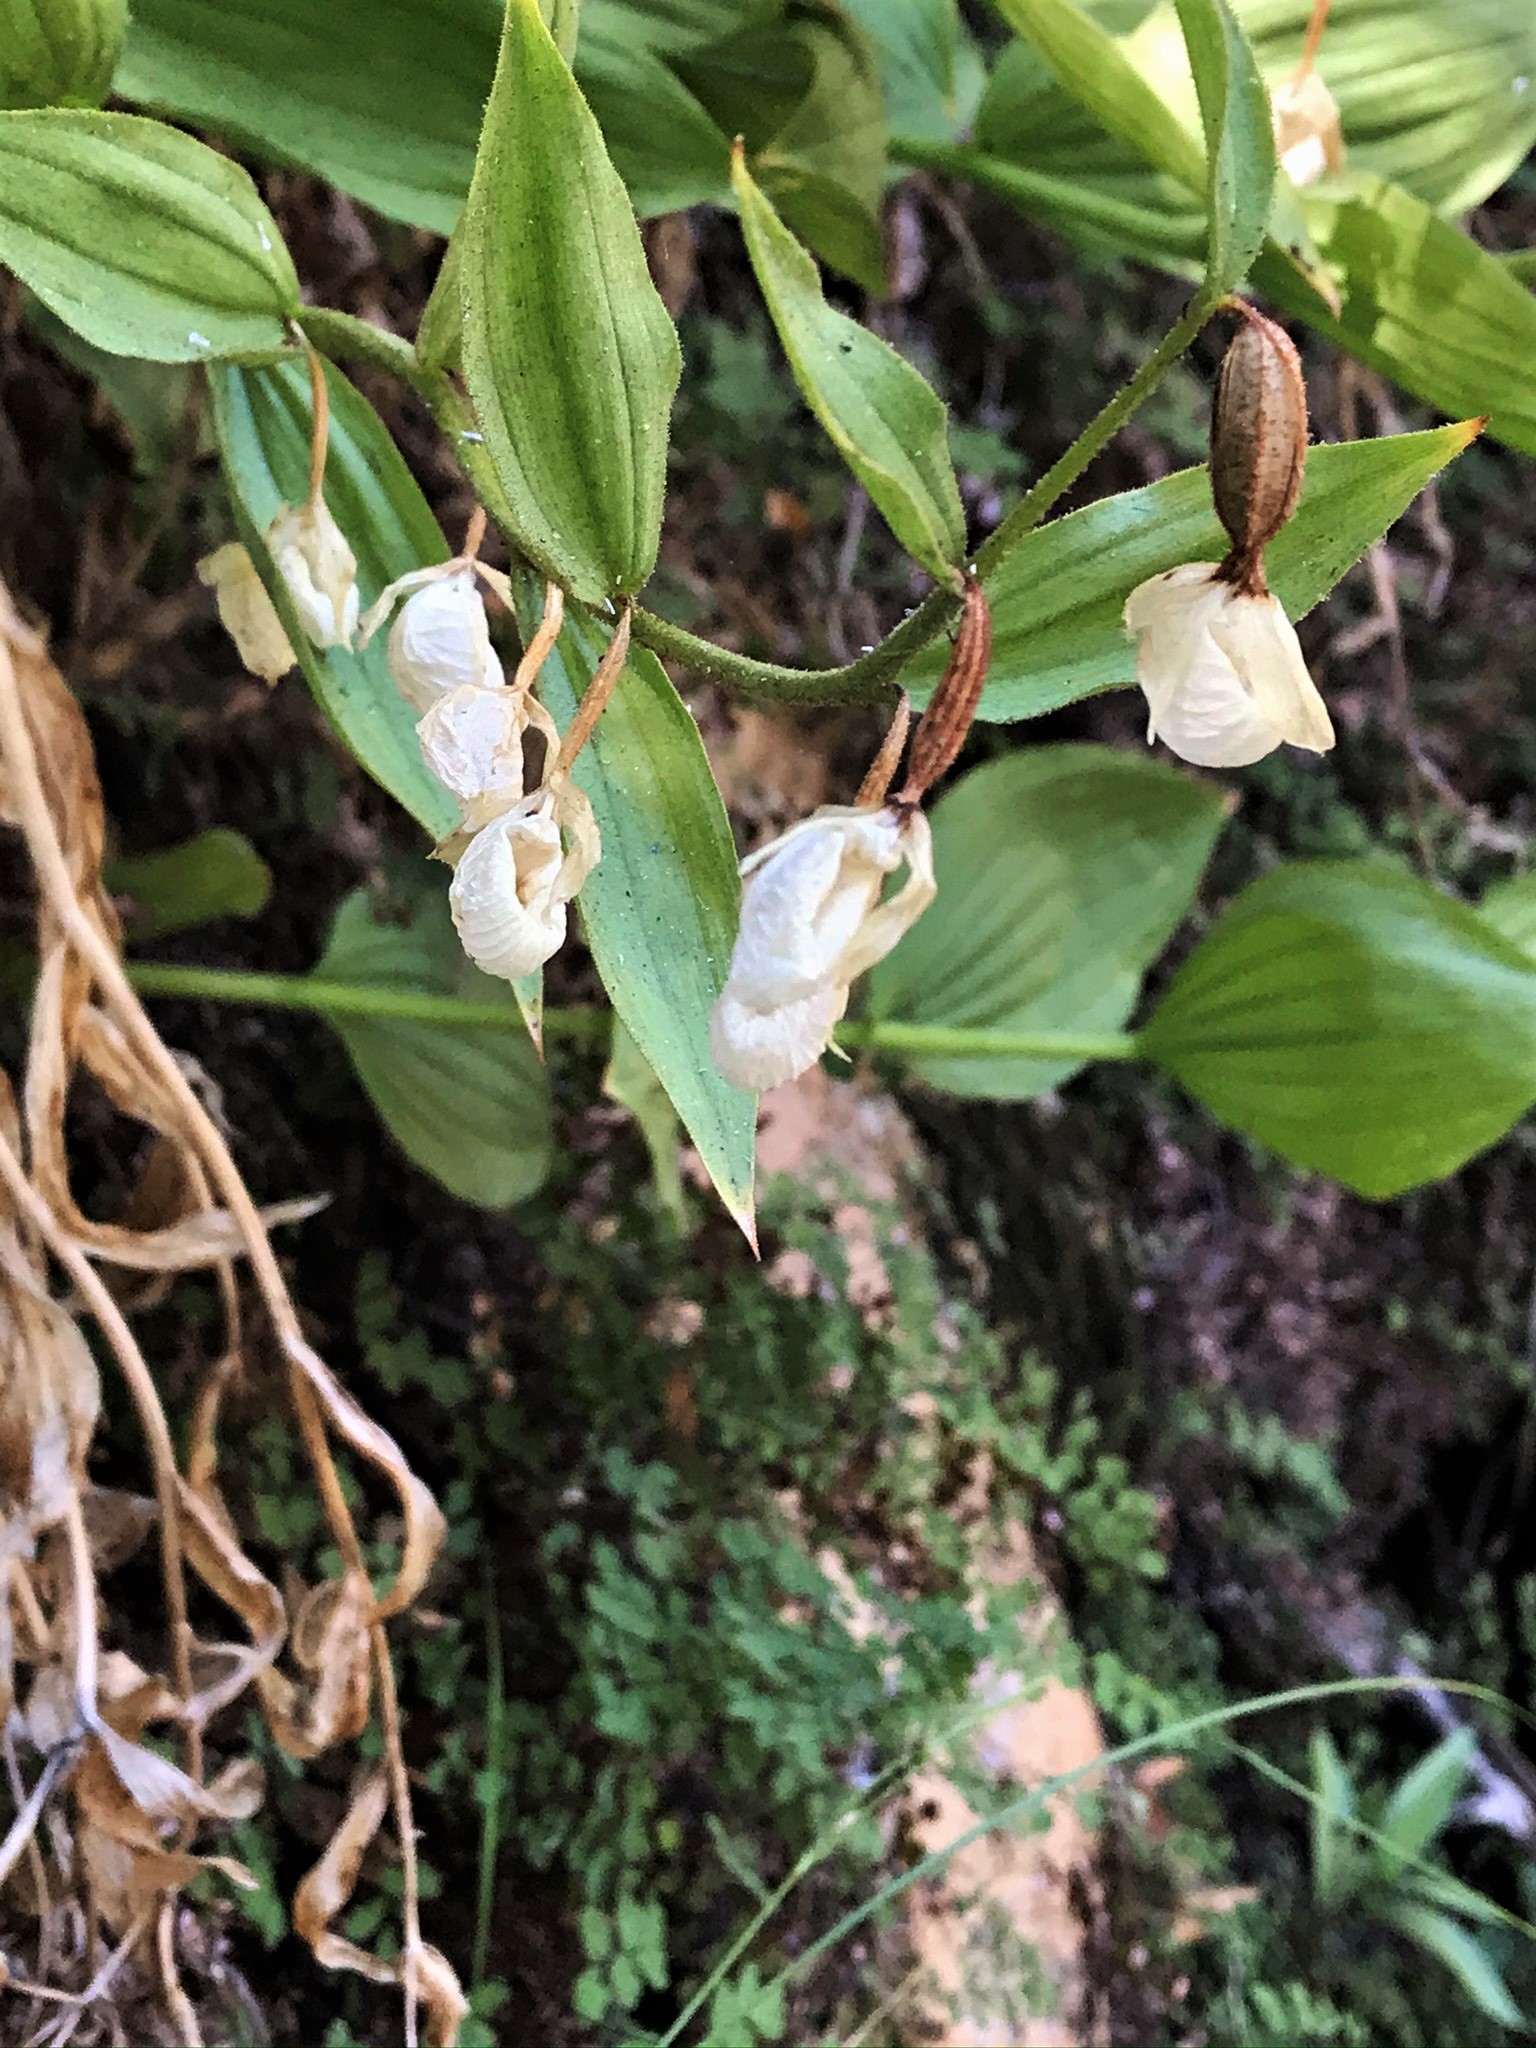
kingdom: Plantae
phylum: Tracheophyta
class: Liliopsida
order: Asparagales
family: Orchidaceae
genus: Cypripedium
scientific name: Cypripedium californicum
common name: California lady's slipper
